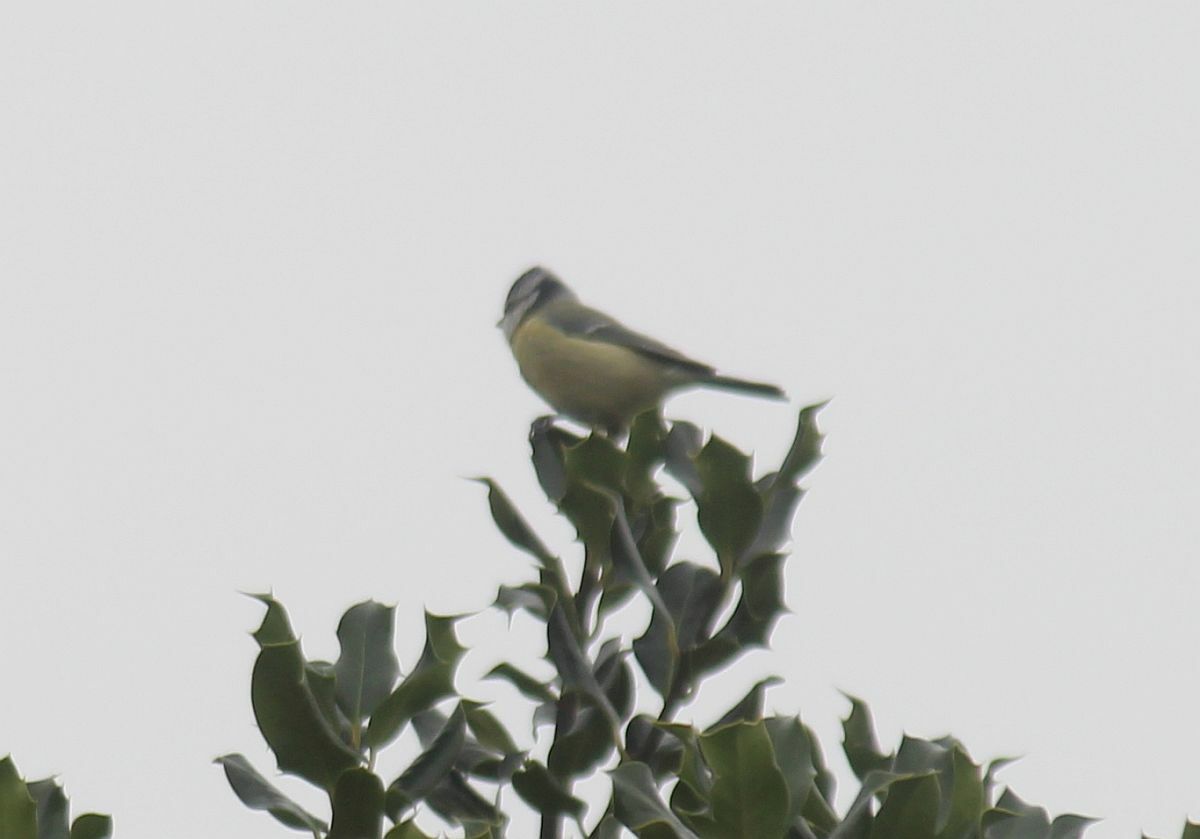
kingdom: Animalia
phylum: Chordata
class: Aves
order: Passeriformes
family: Paridae
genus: Cyanistes
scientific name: Cyanistes caeruleus
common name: Eurasian blue tit
